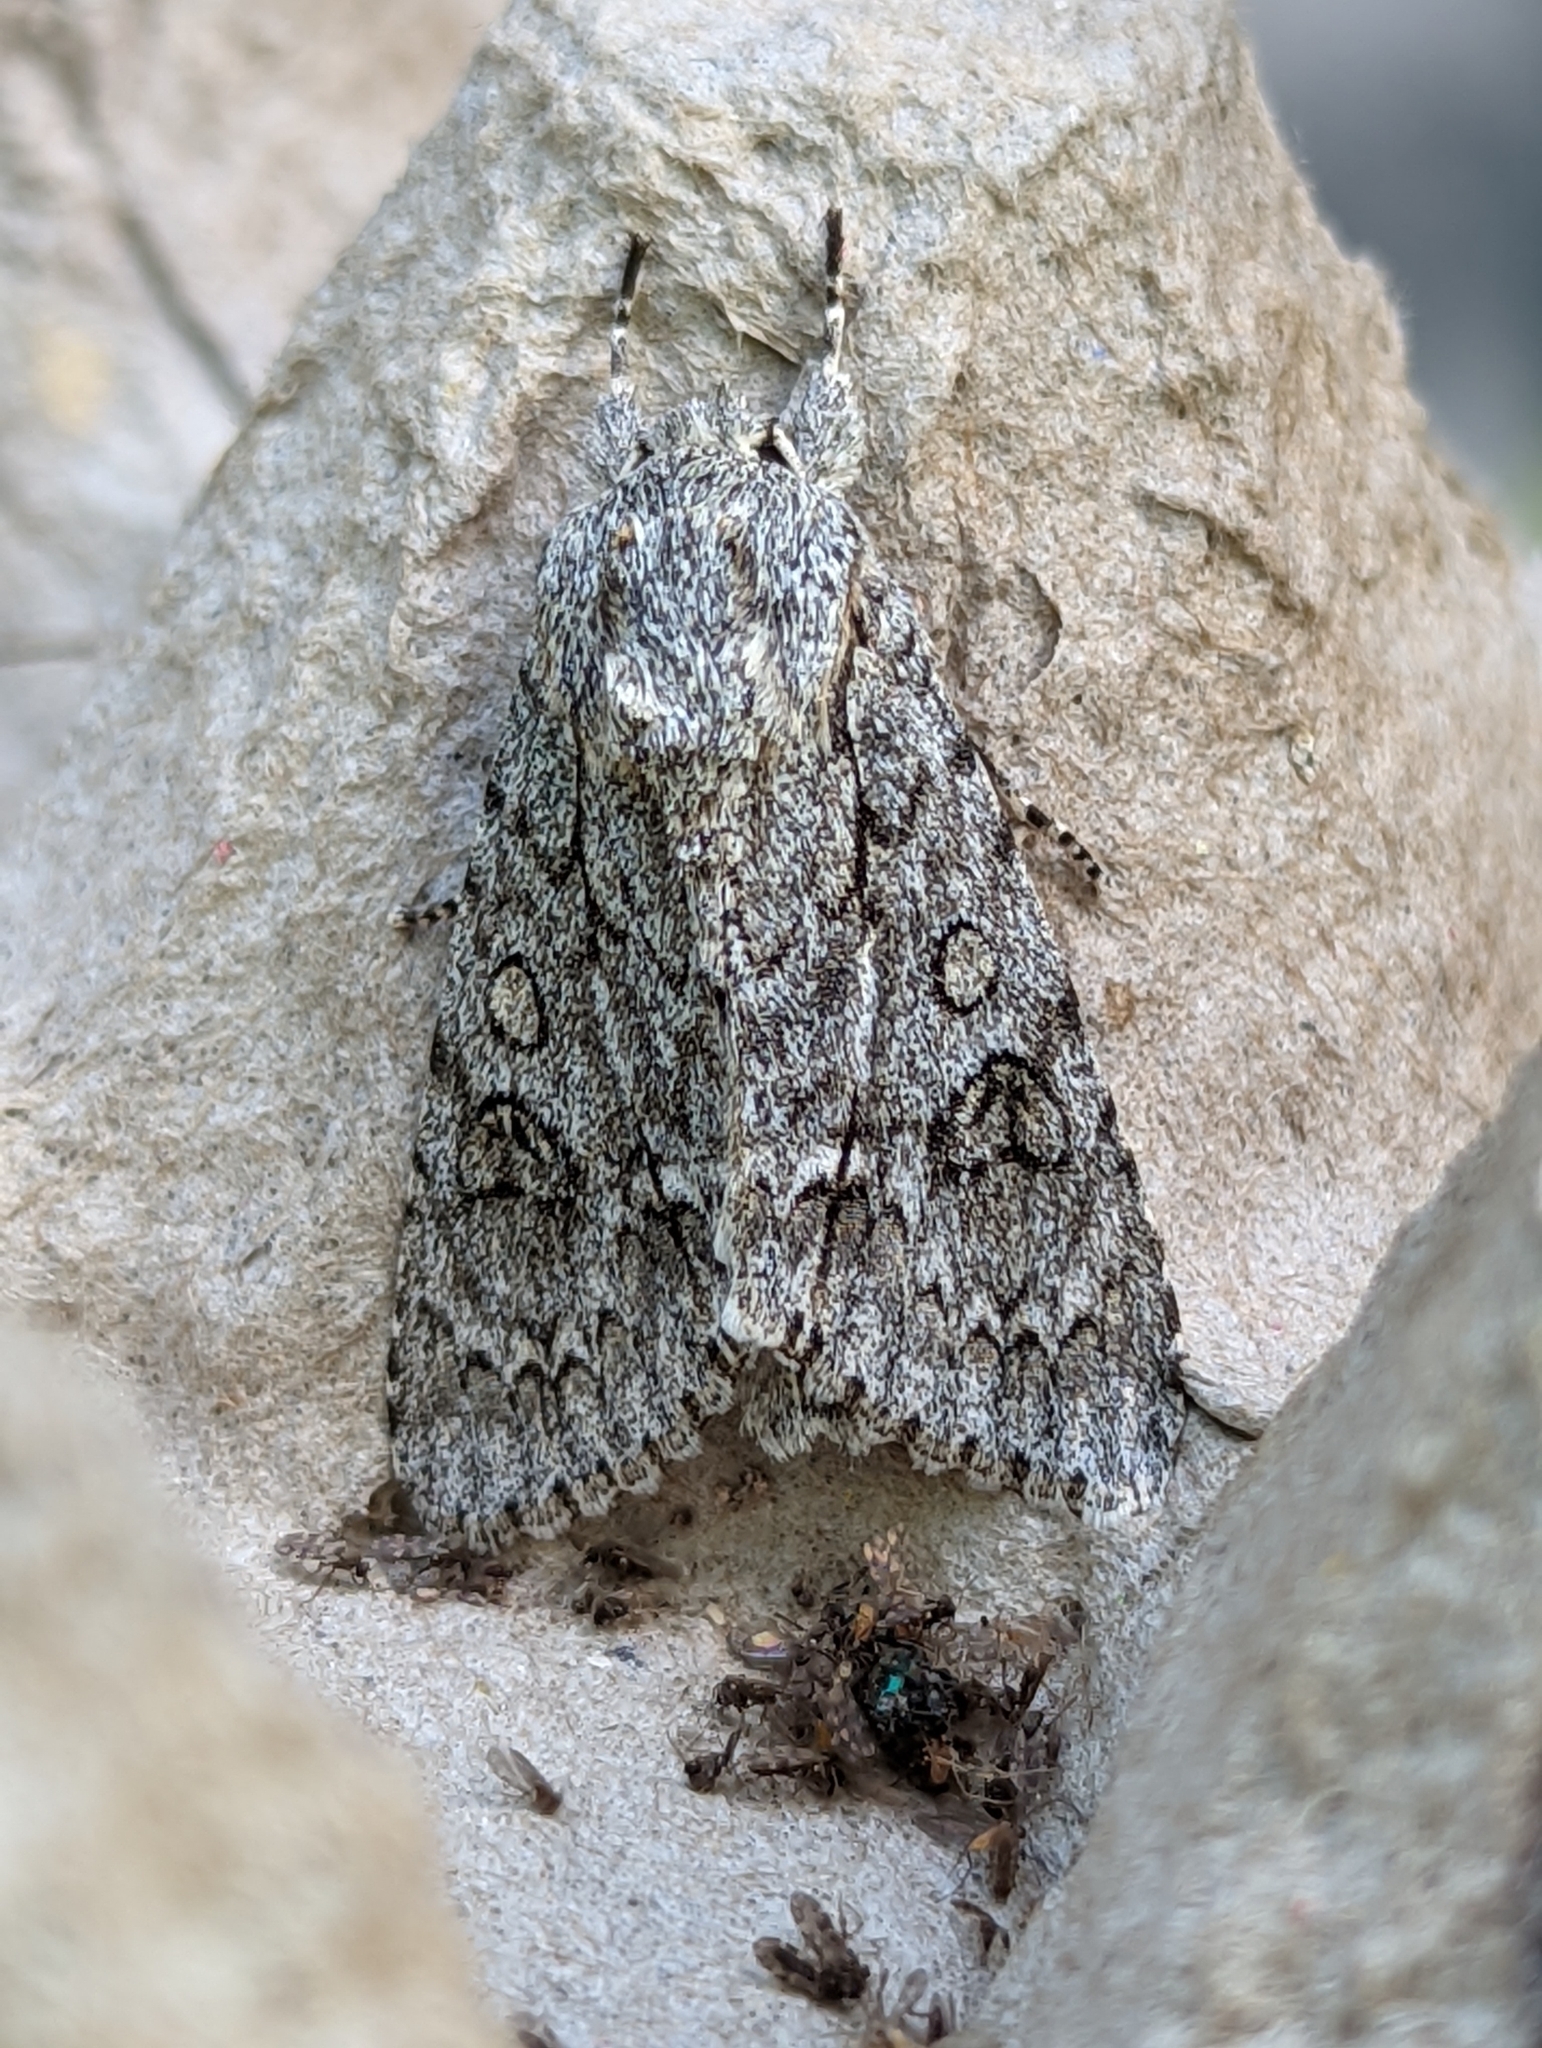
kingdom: Animalia
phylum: Arthropoda
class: Insecta
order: Lepidoptera
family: Noctuidae
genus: Acronicta
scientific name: Acronicta aceris
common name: Sycamore
